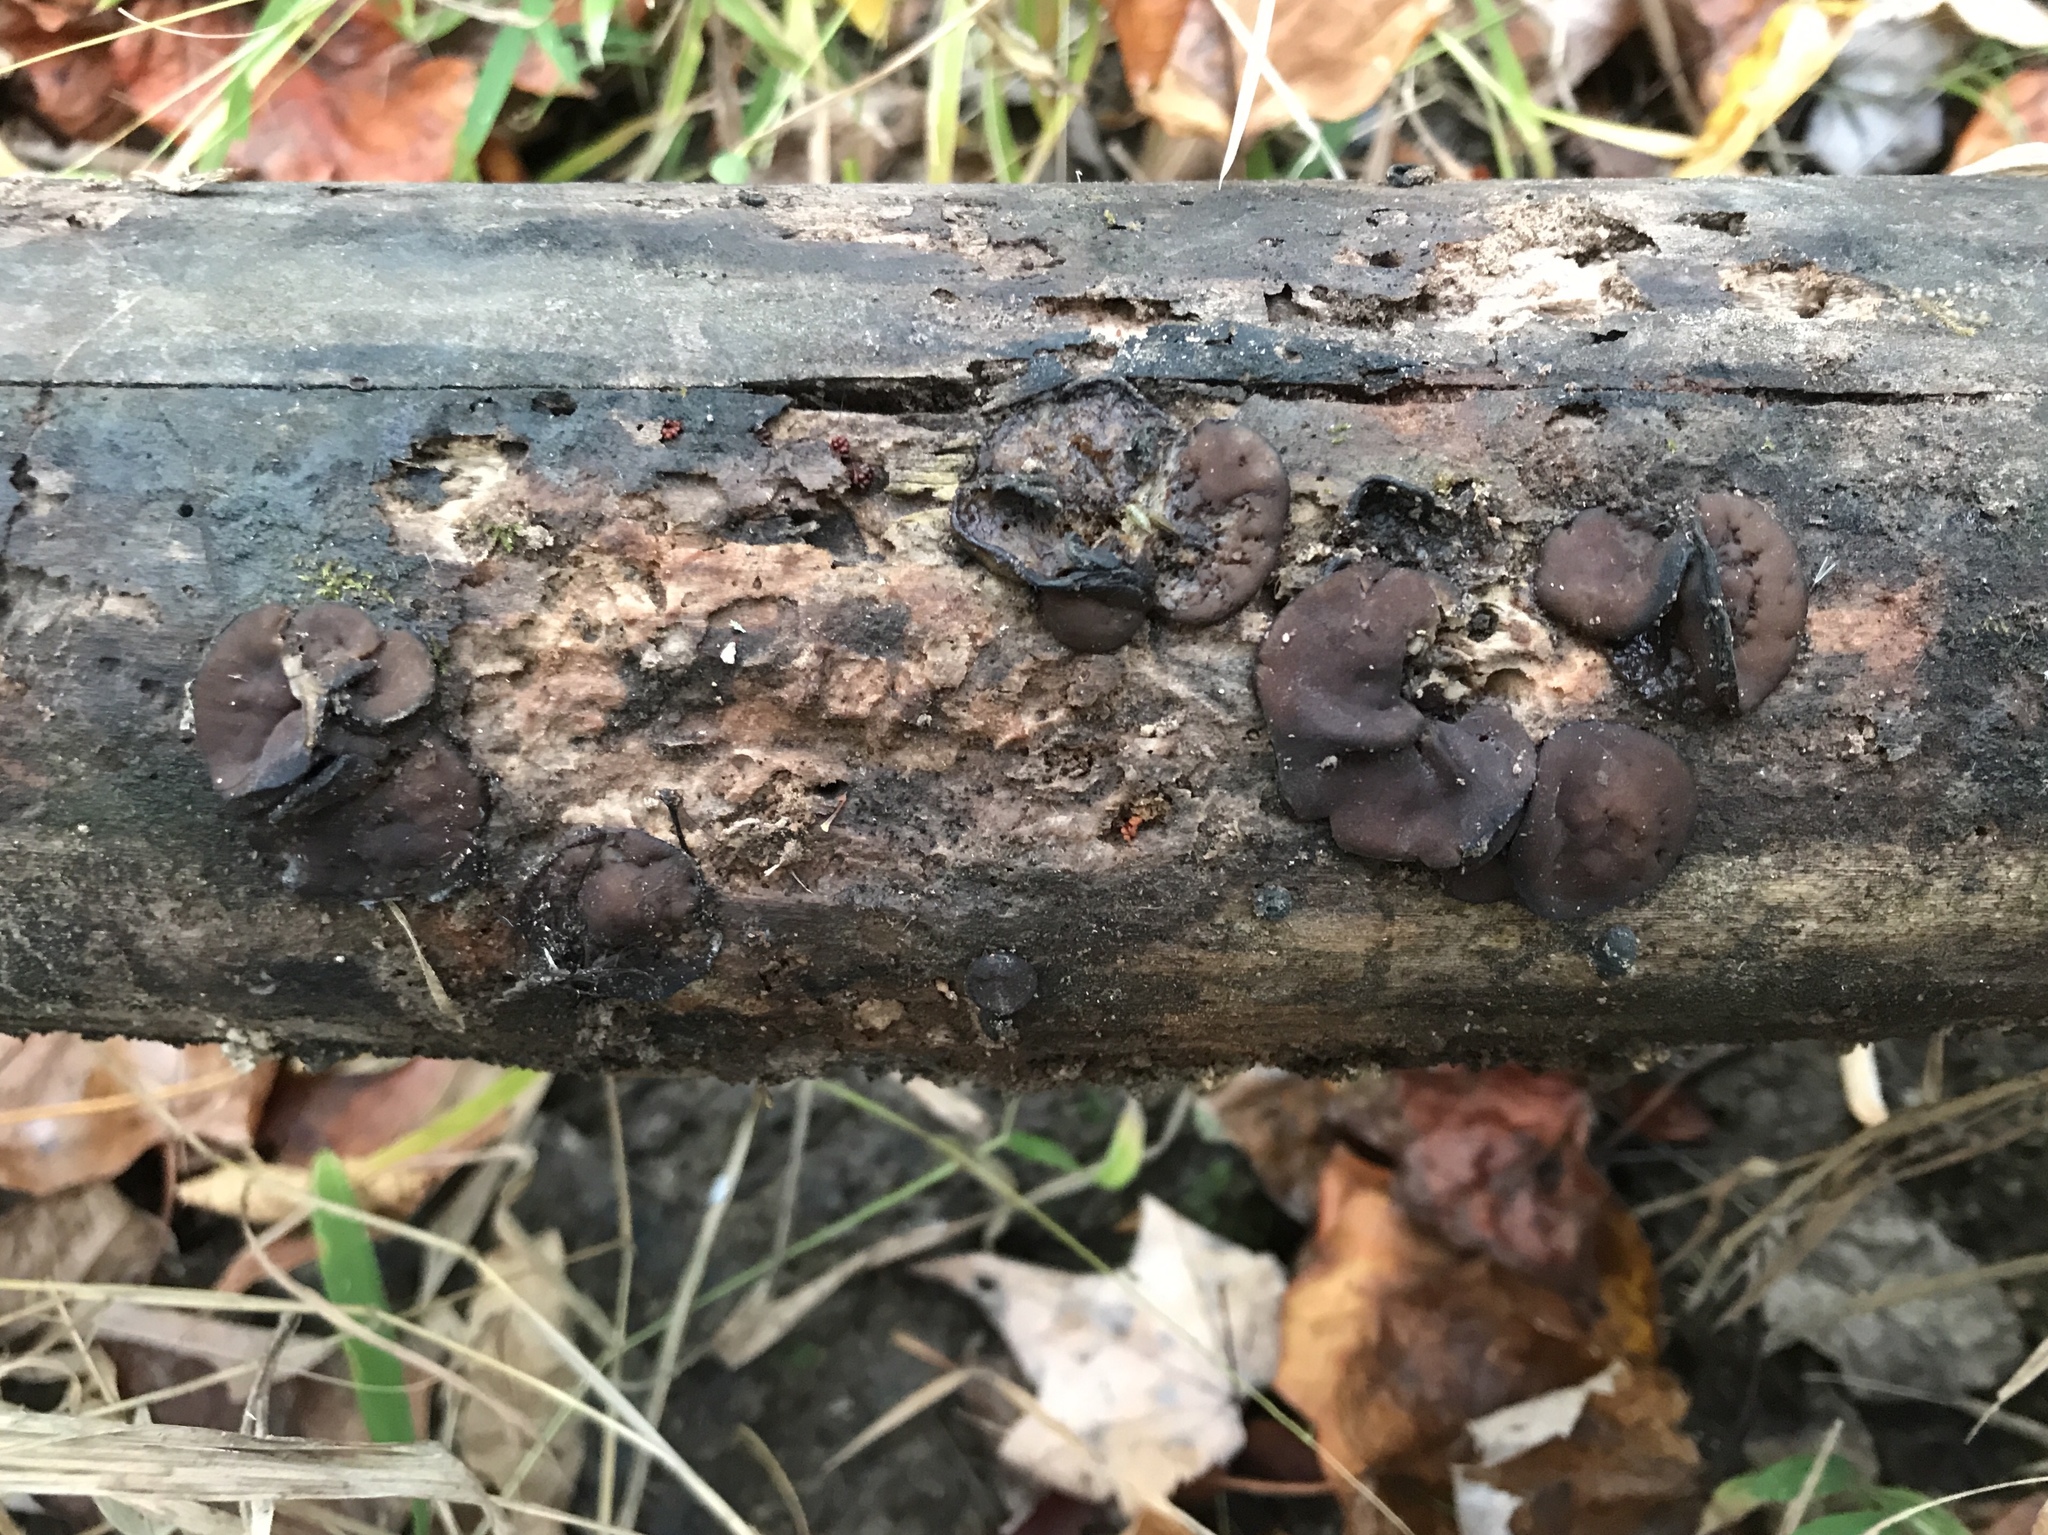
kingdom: Fungi
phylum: Ascomycota
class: Pezizomycetes
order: Pezizales
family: Pezizaceae
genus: Pachyella
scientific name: Pachyella clypeata
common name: Copper penny fungus
